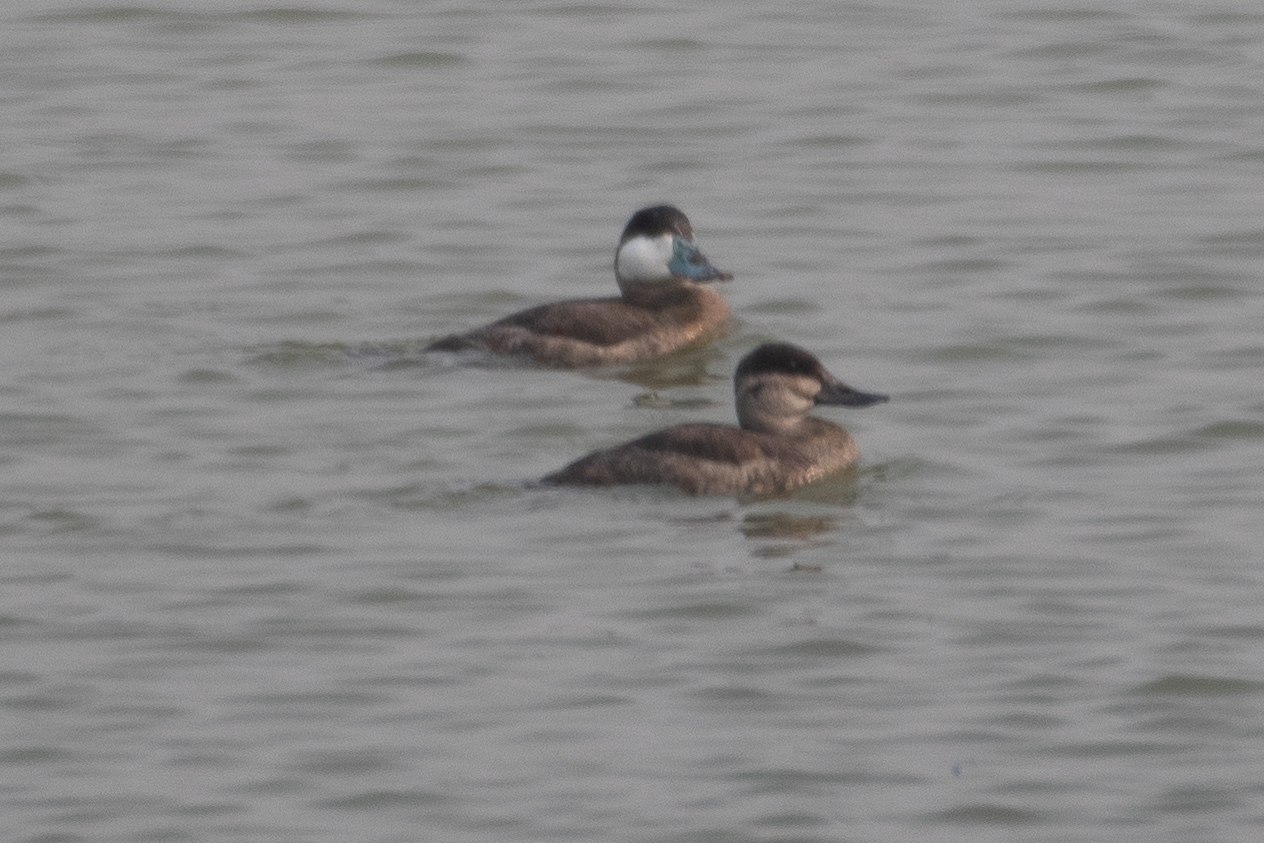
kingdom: Animalia
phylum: Chordata
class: Aves
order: Anseriformes
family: Anatidae
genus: Oxyura
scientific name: Oxyura jamaicensis
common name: Ruddy duck
